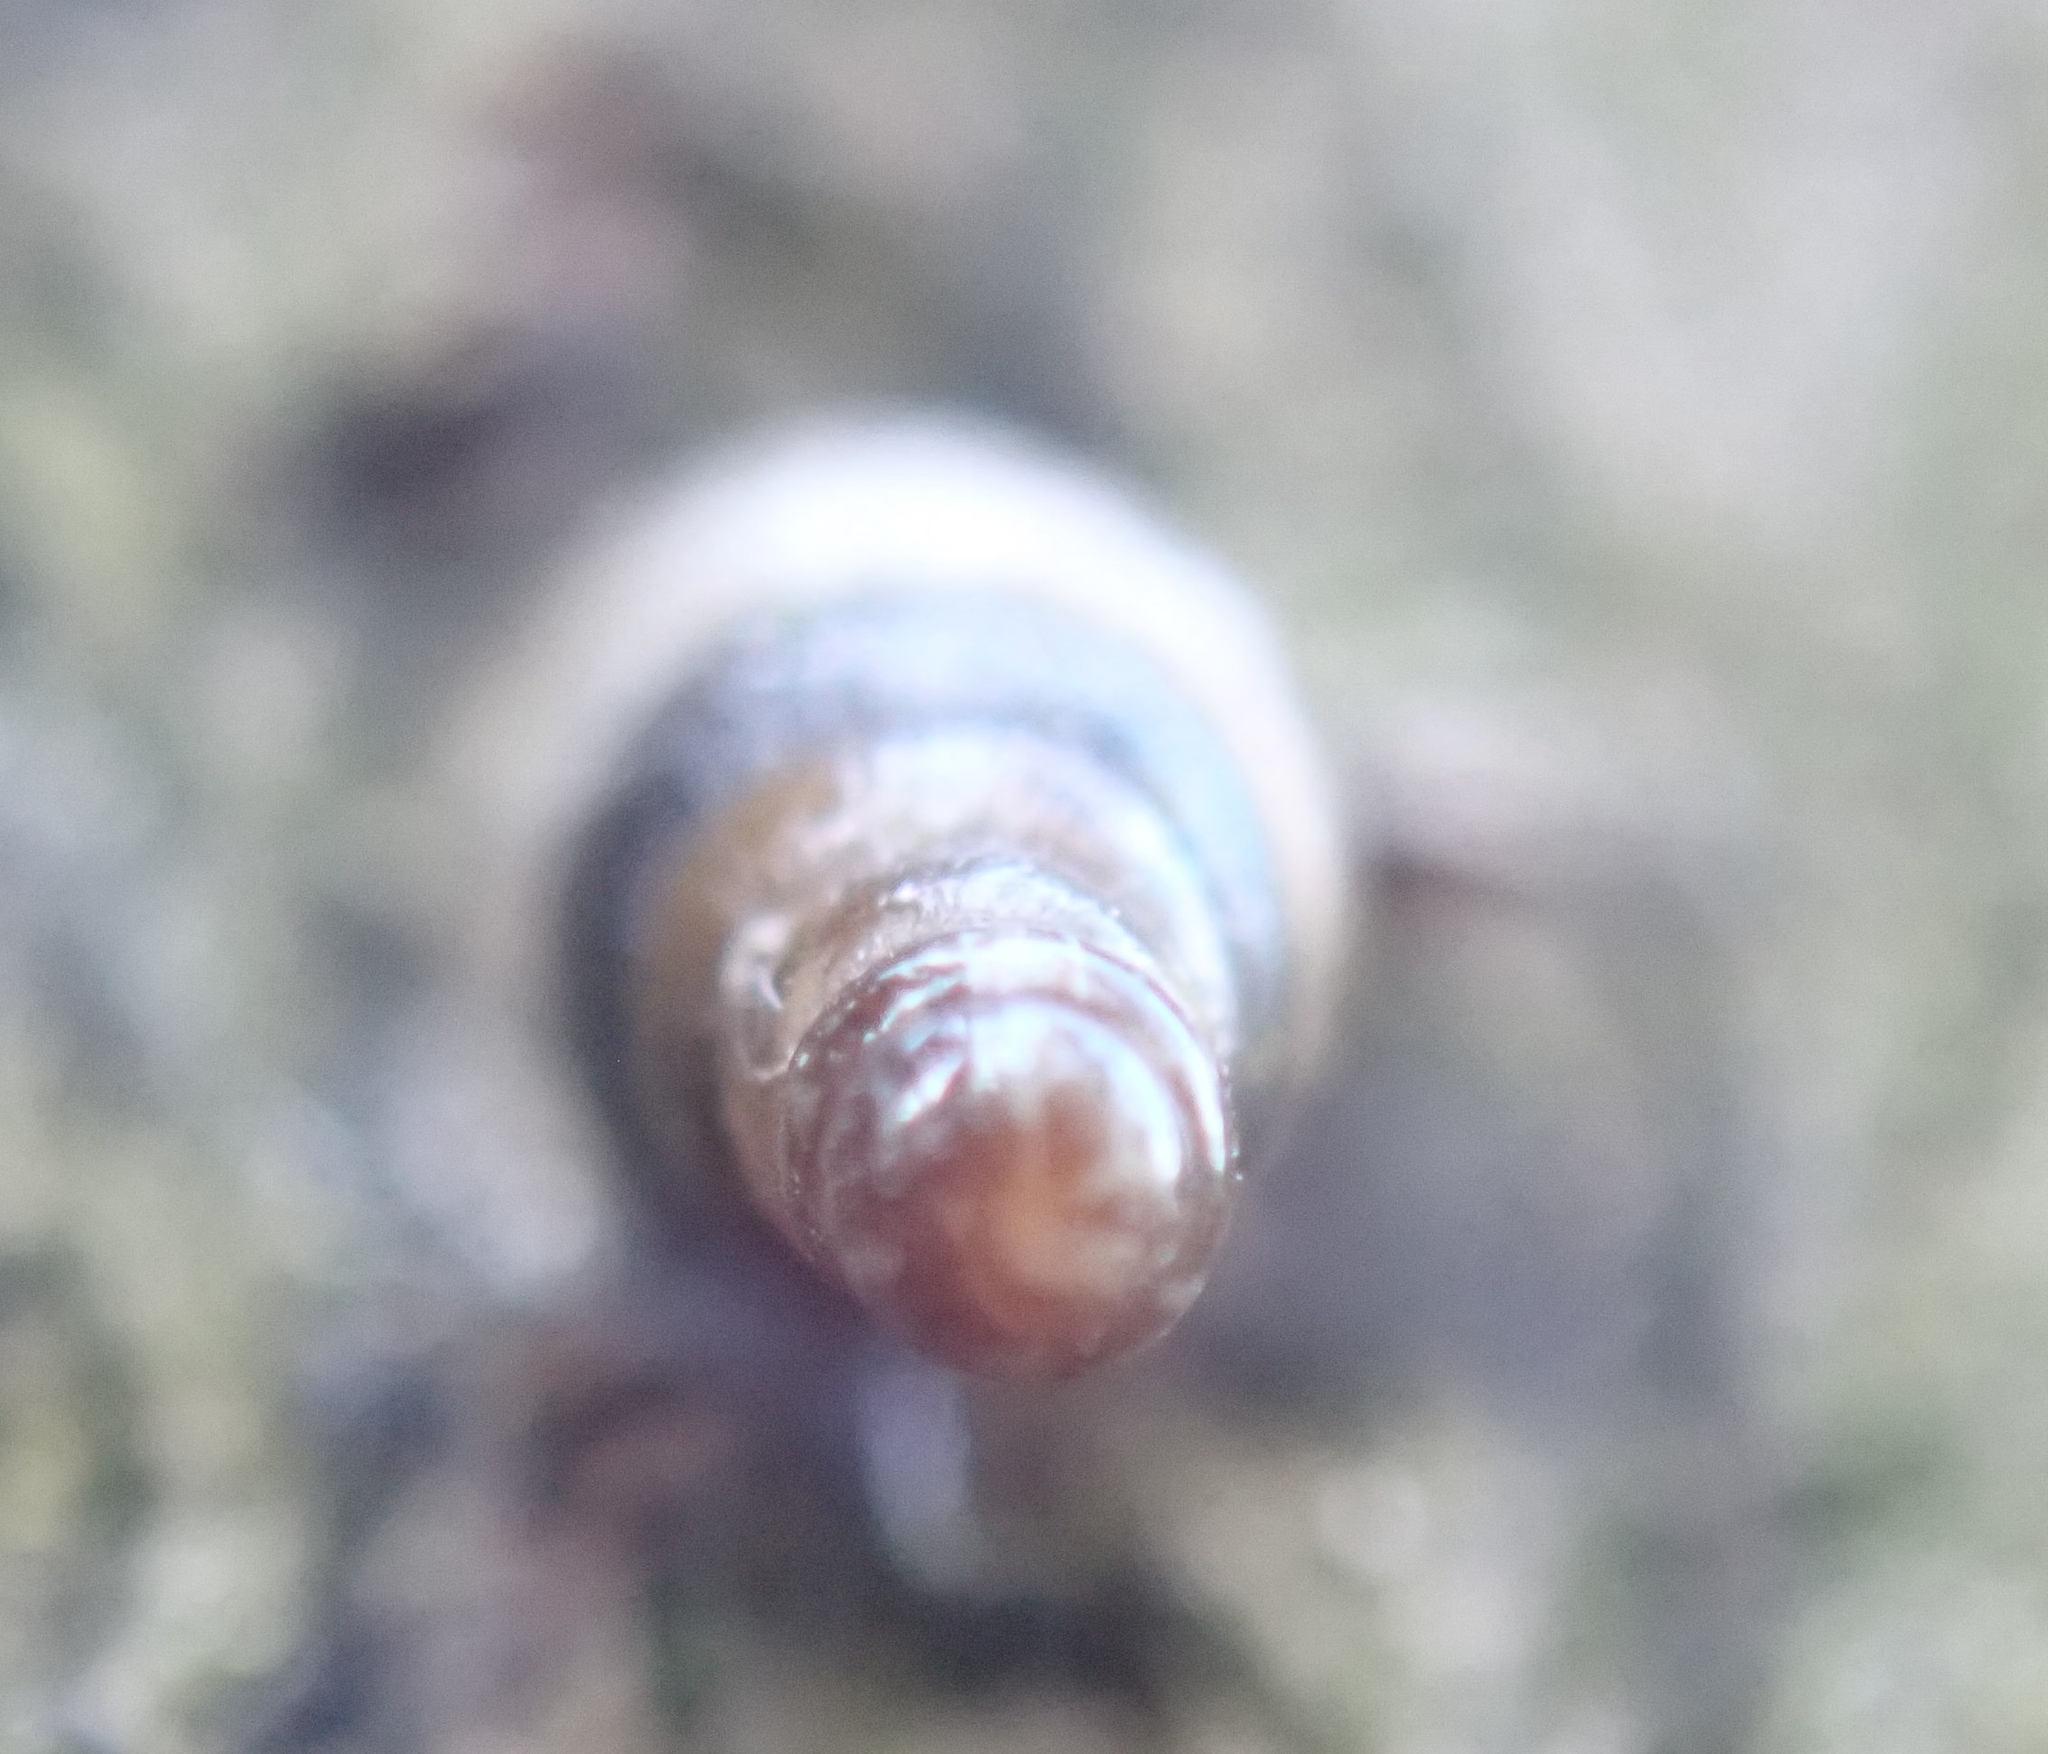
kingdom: Animalia
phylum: Mollusca
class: Gastropoda
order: Stylommatophora
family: Clausiliidae
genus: Cochlodina
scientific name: Cochlodina laminata
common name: Plaited door snail
